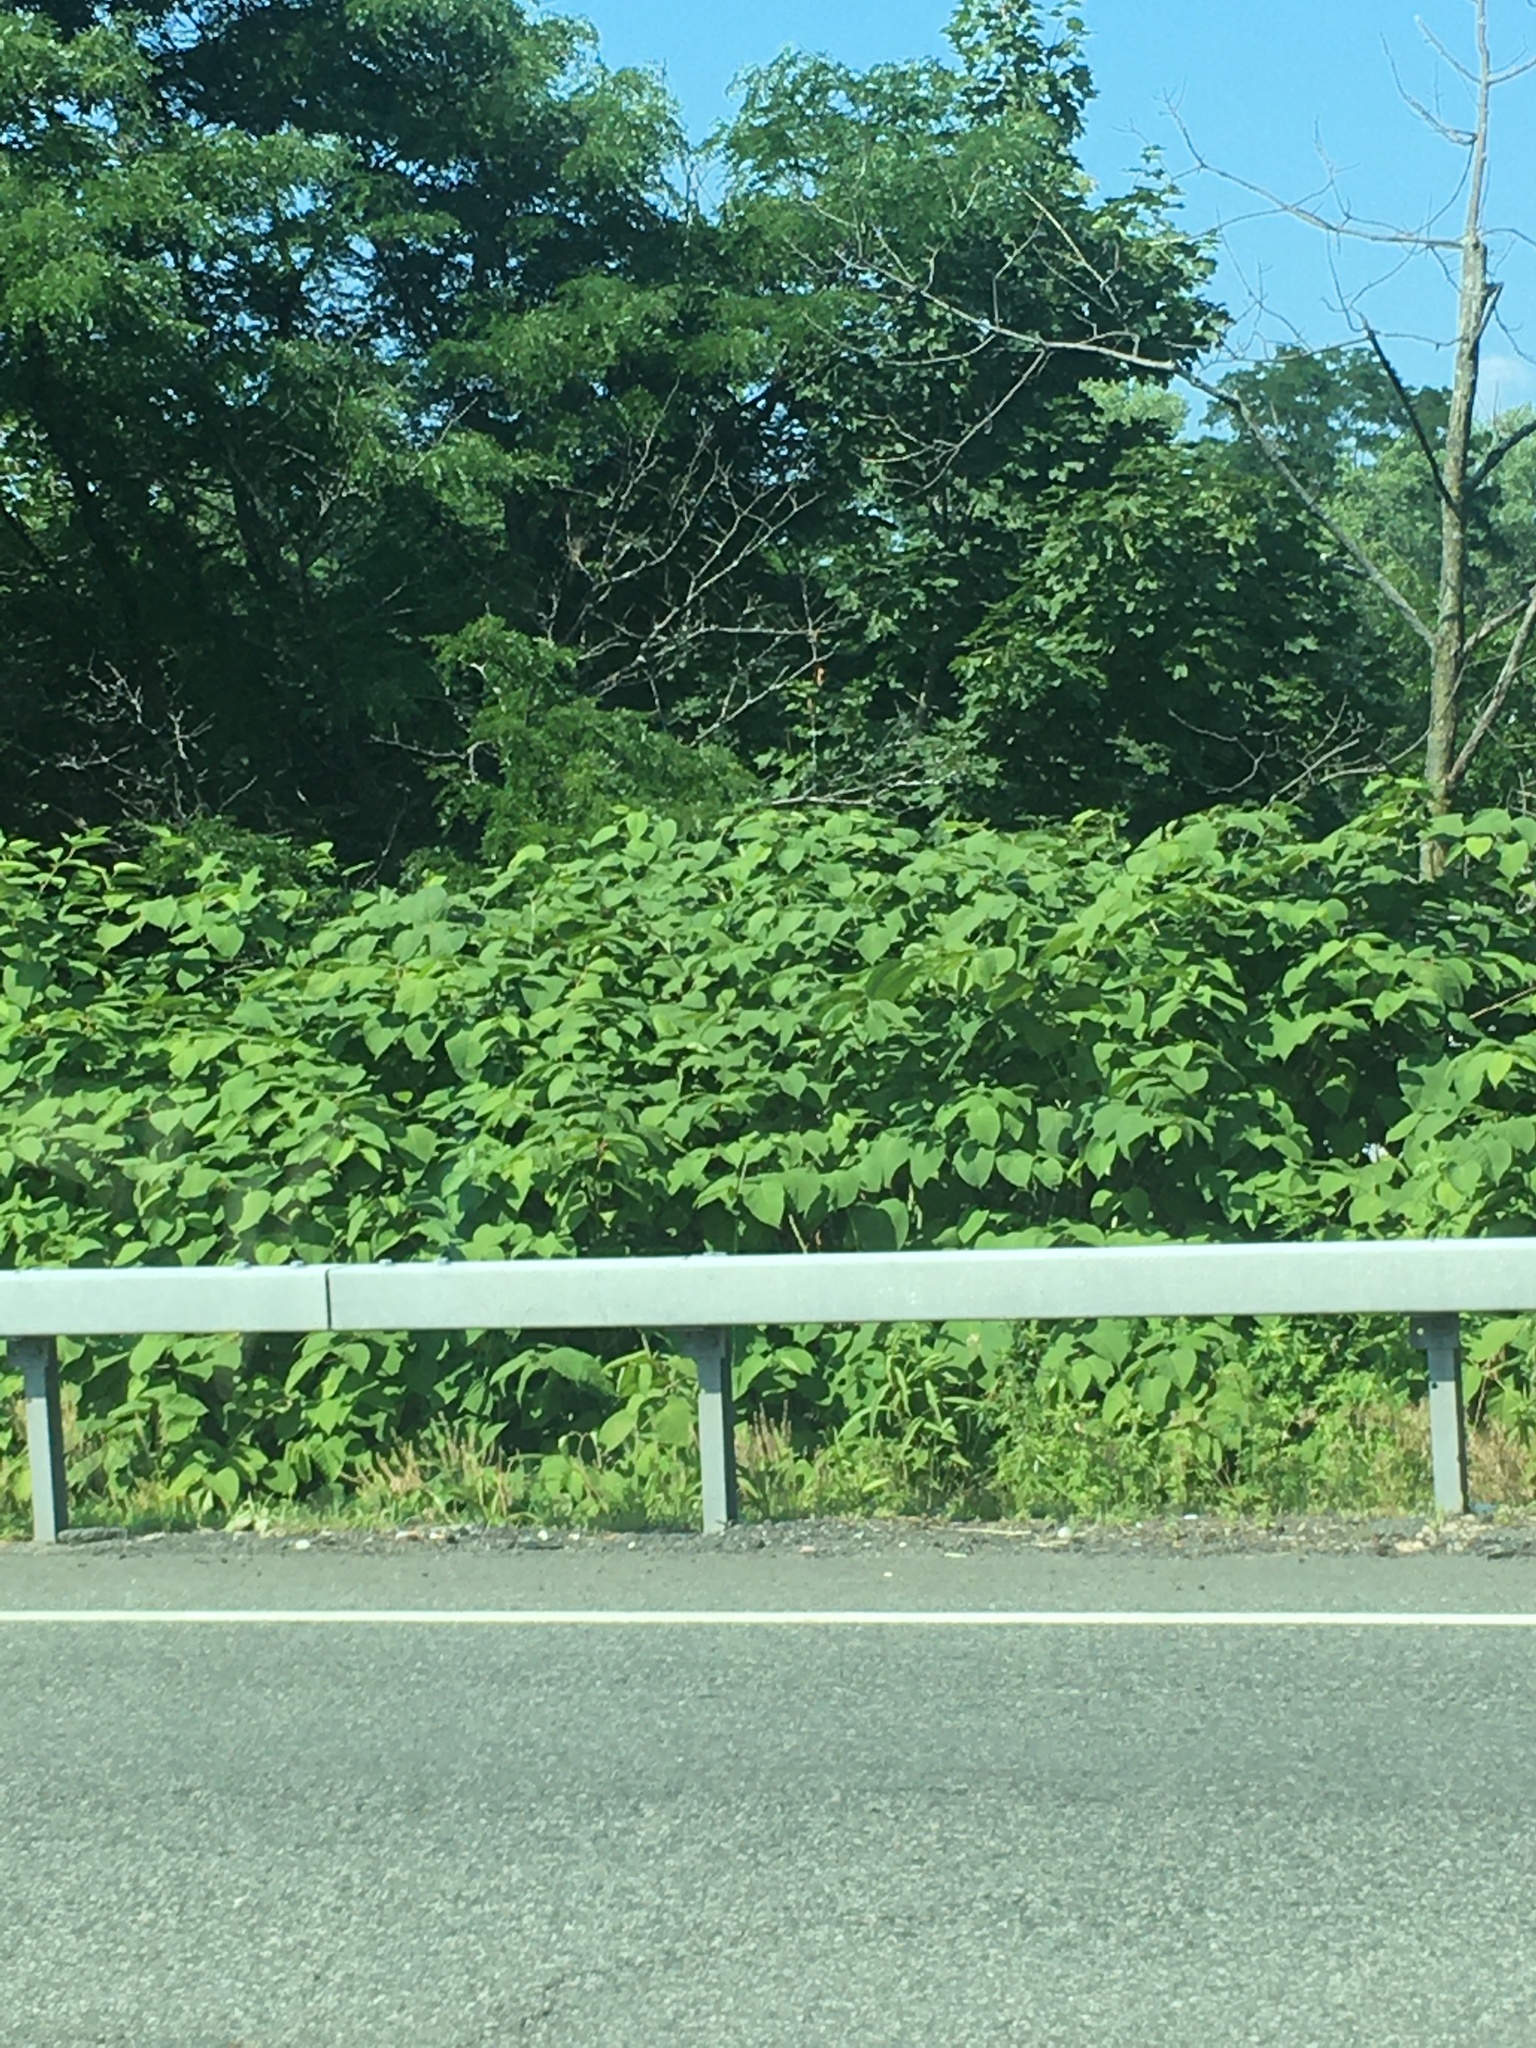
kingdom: Plantae
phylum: Tracheophyta
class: Magnoliopsida
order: Caryophyllales
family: Polygonaceae
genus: Reynoutria
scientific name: Reynoutria japonica
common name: Japanese knotweed
